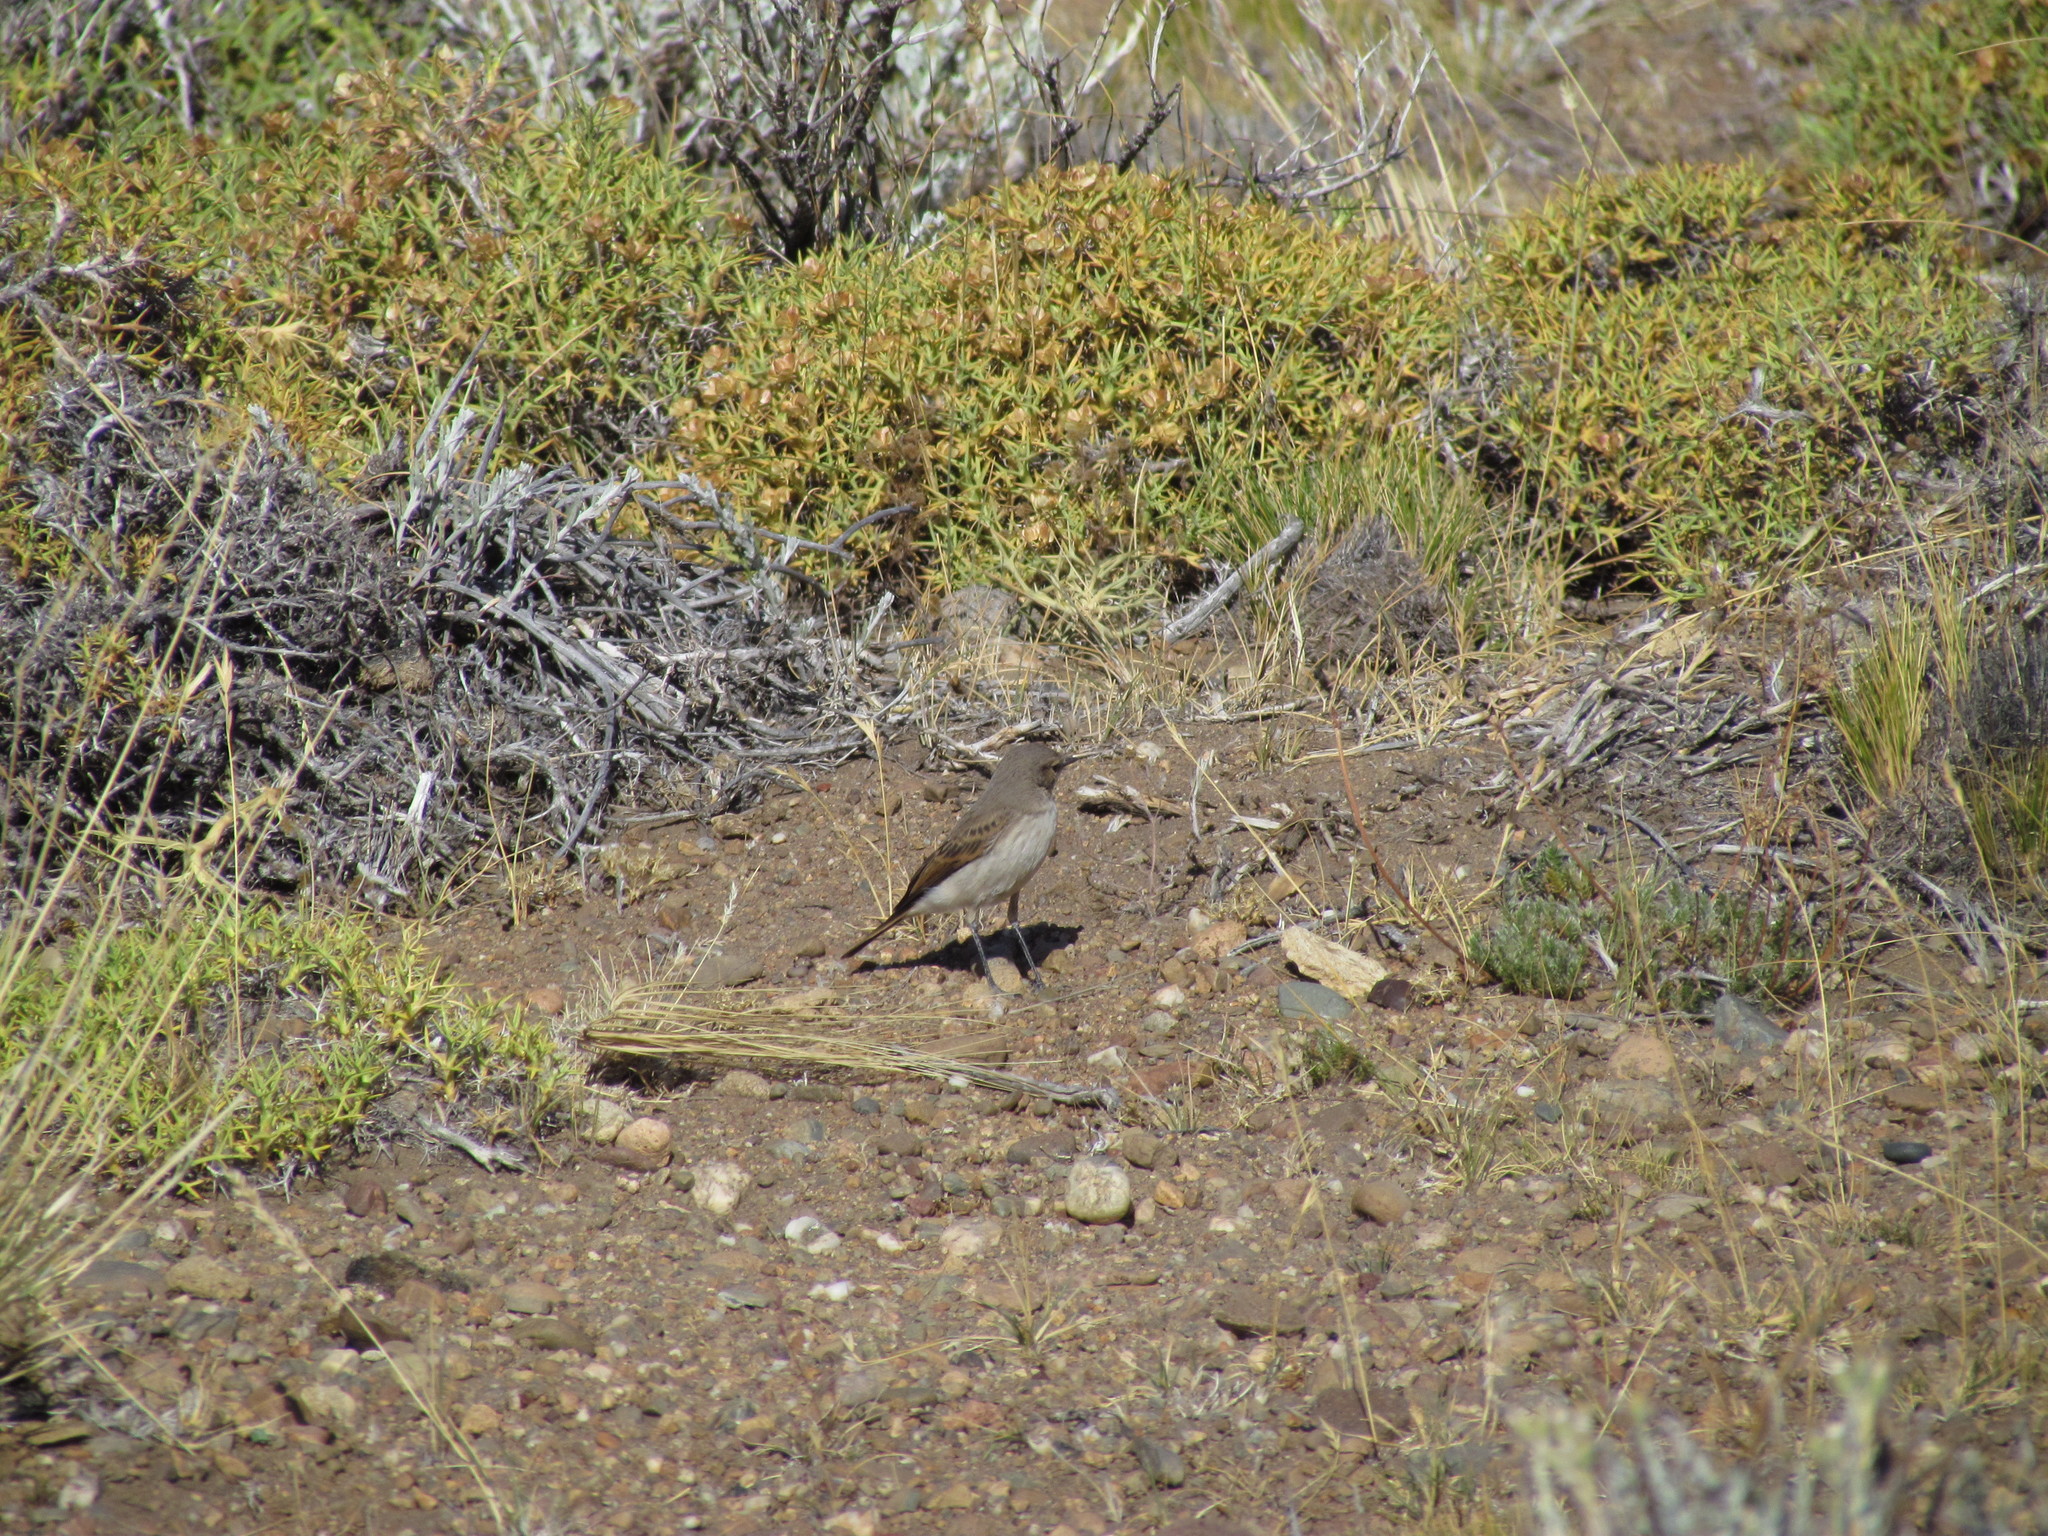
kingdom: Animalia
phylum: Chordata
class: Aves
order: Passeriformes
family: Tyrannidae
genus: Muscisaxicola
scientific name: Muscisaxicola maculirostris
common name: Spot-billed ground tyrant
